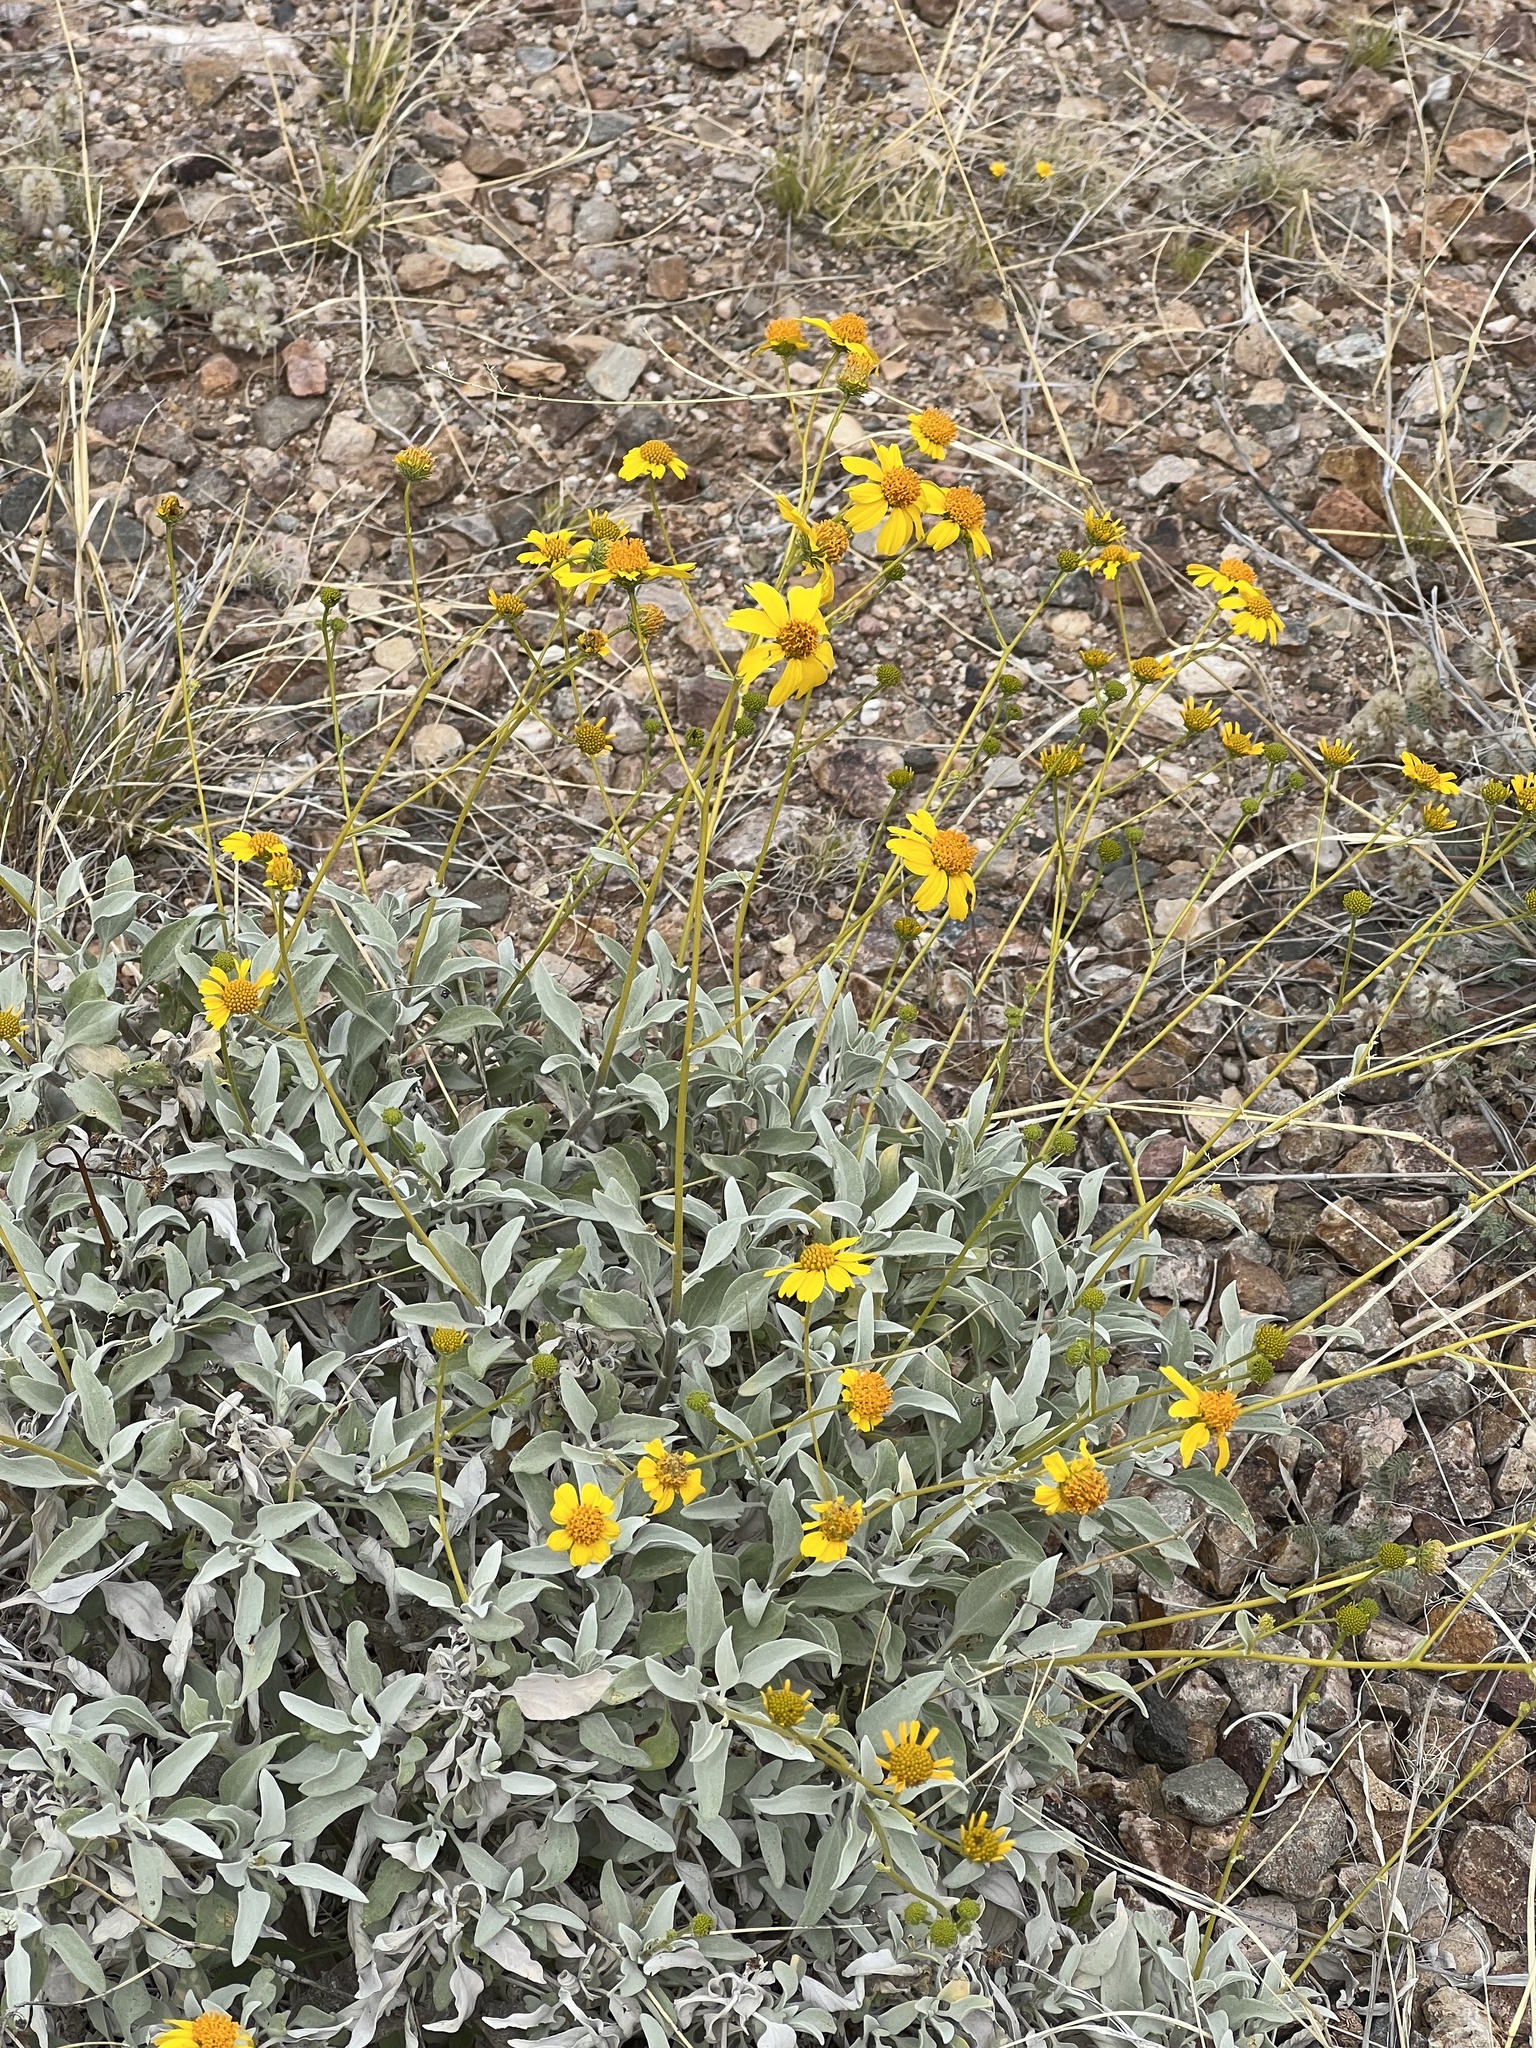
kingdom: Plantae
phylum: Tracheophyta
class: Magnoliopsida
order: Asterales
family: Asteraceae
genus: Encelia
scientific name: Encelia farinosa
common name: Brittlebush
